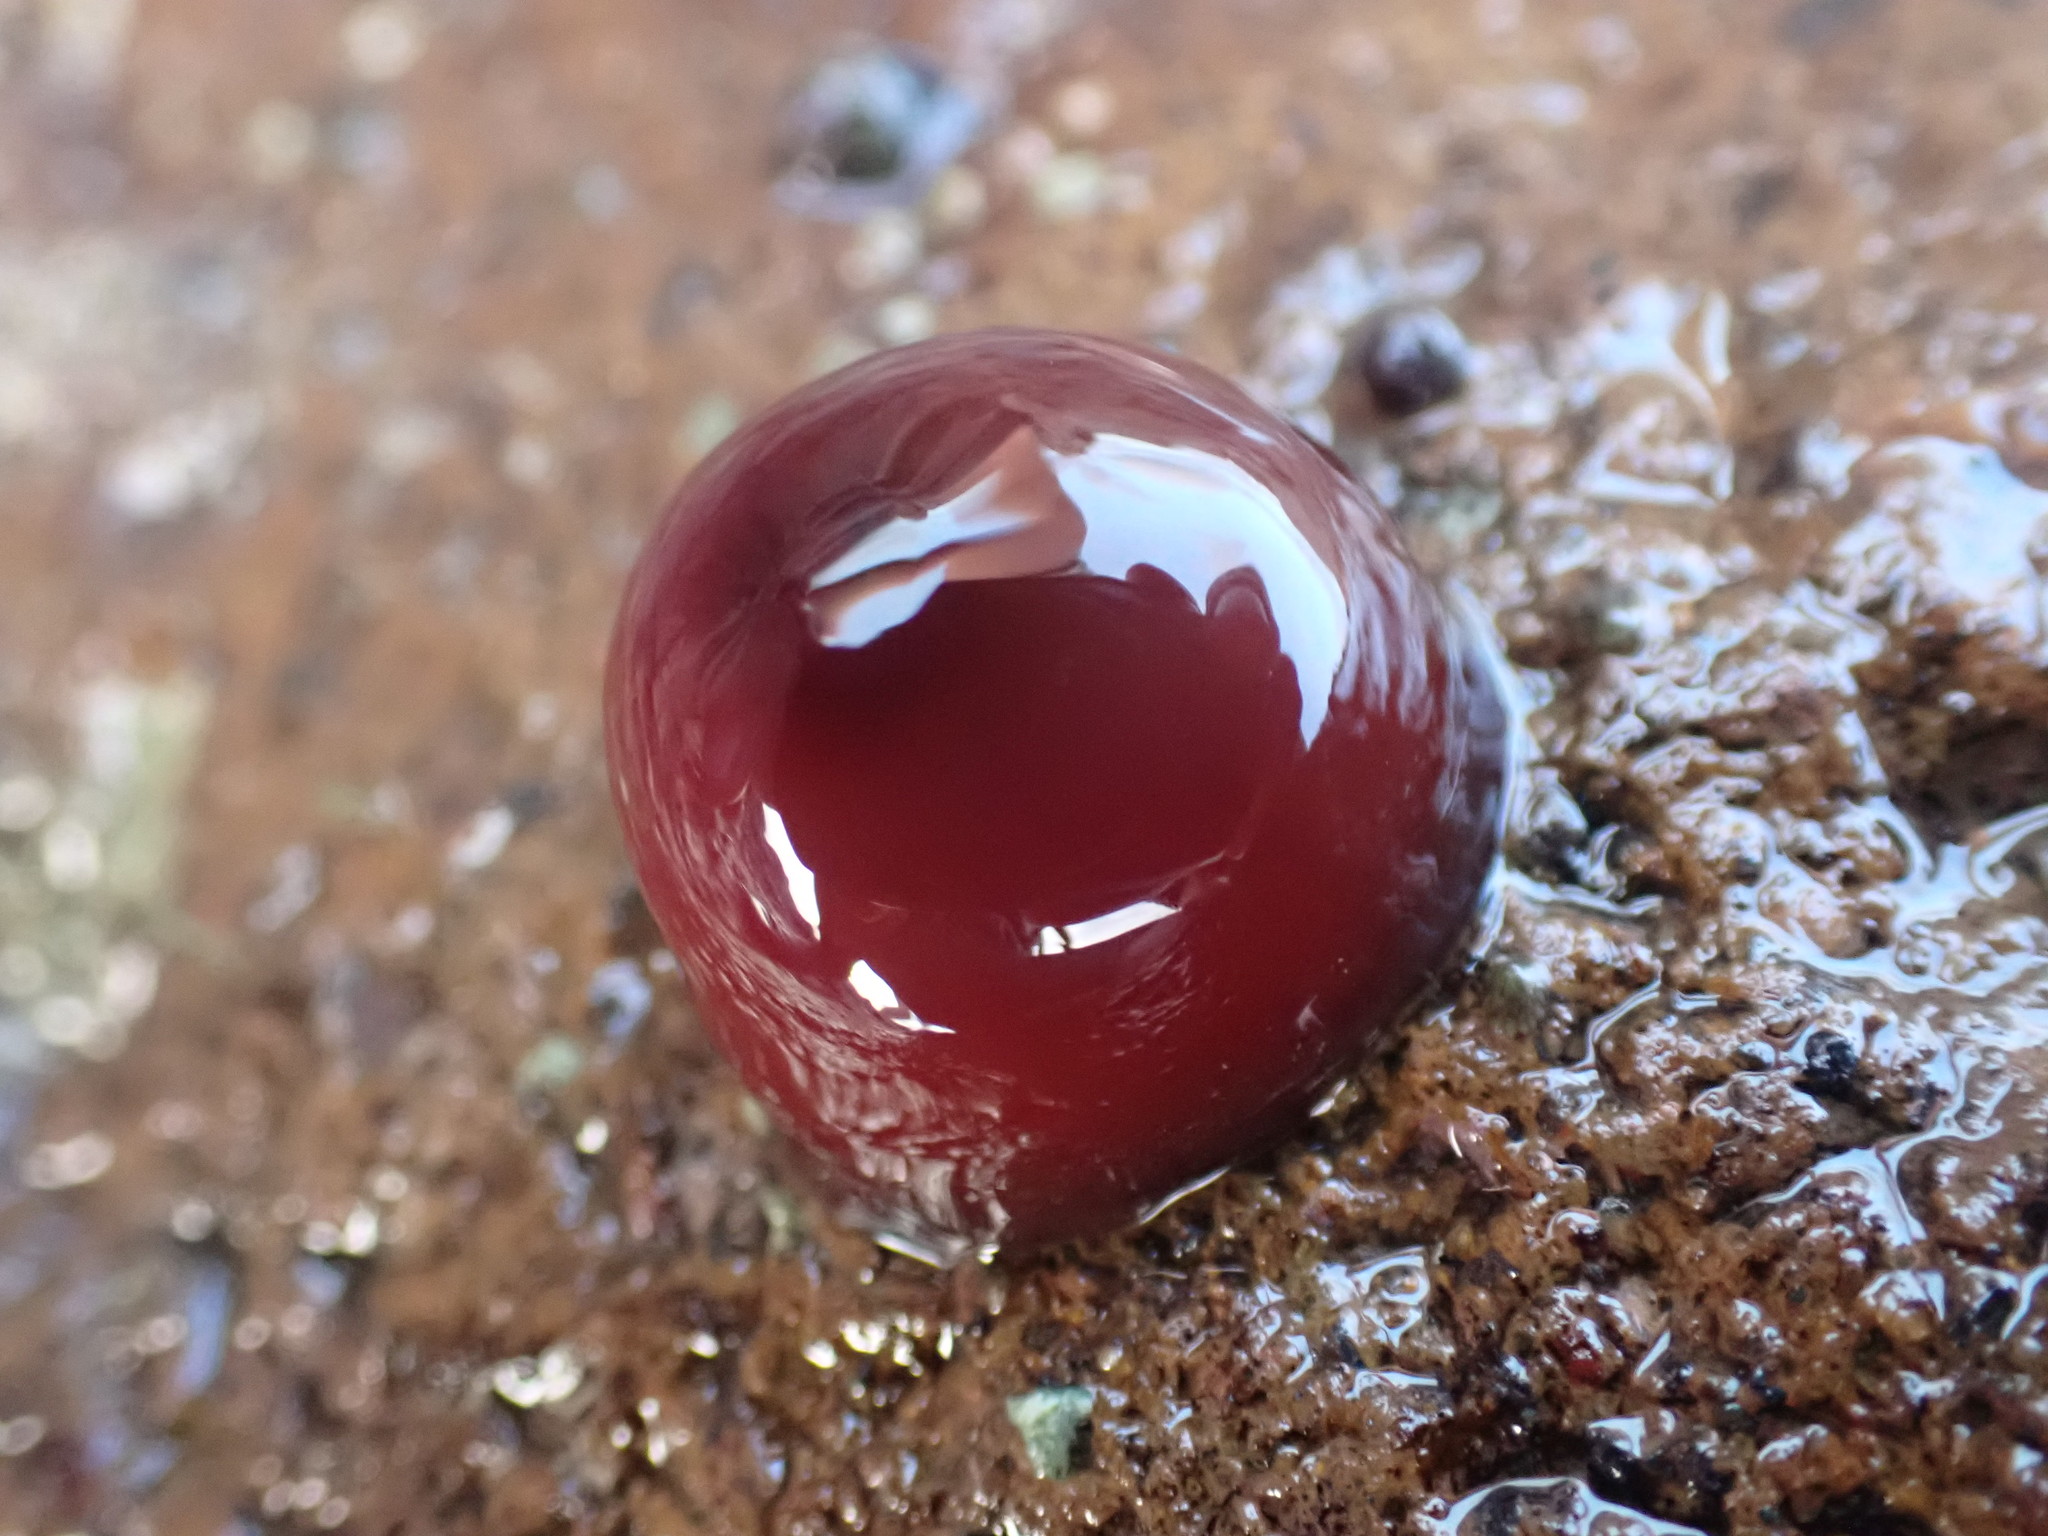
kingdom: Animalia
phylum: Cnidaria
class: Anthozoa
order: Actiniaria
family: Actiniidae
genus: Actinia
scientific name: Actinia tenebrosa
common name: Waratah anemone
